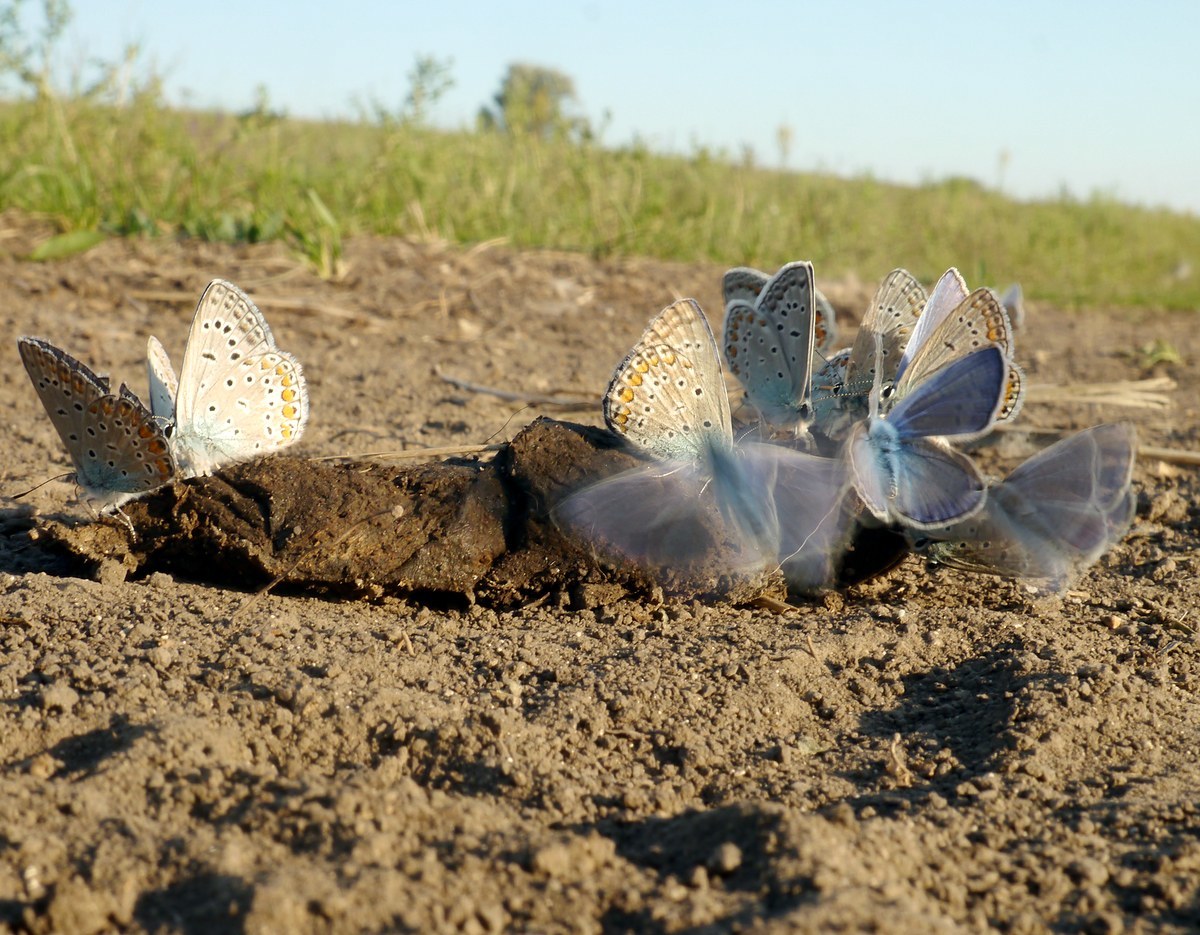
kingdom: Animalia
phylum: Arthropoda
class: Insecta
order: Lepidoptera
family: Lycaenidae
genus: Polyommatus
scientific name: Polyommatus icarus
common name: Common blue
